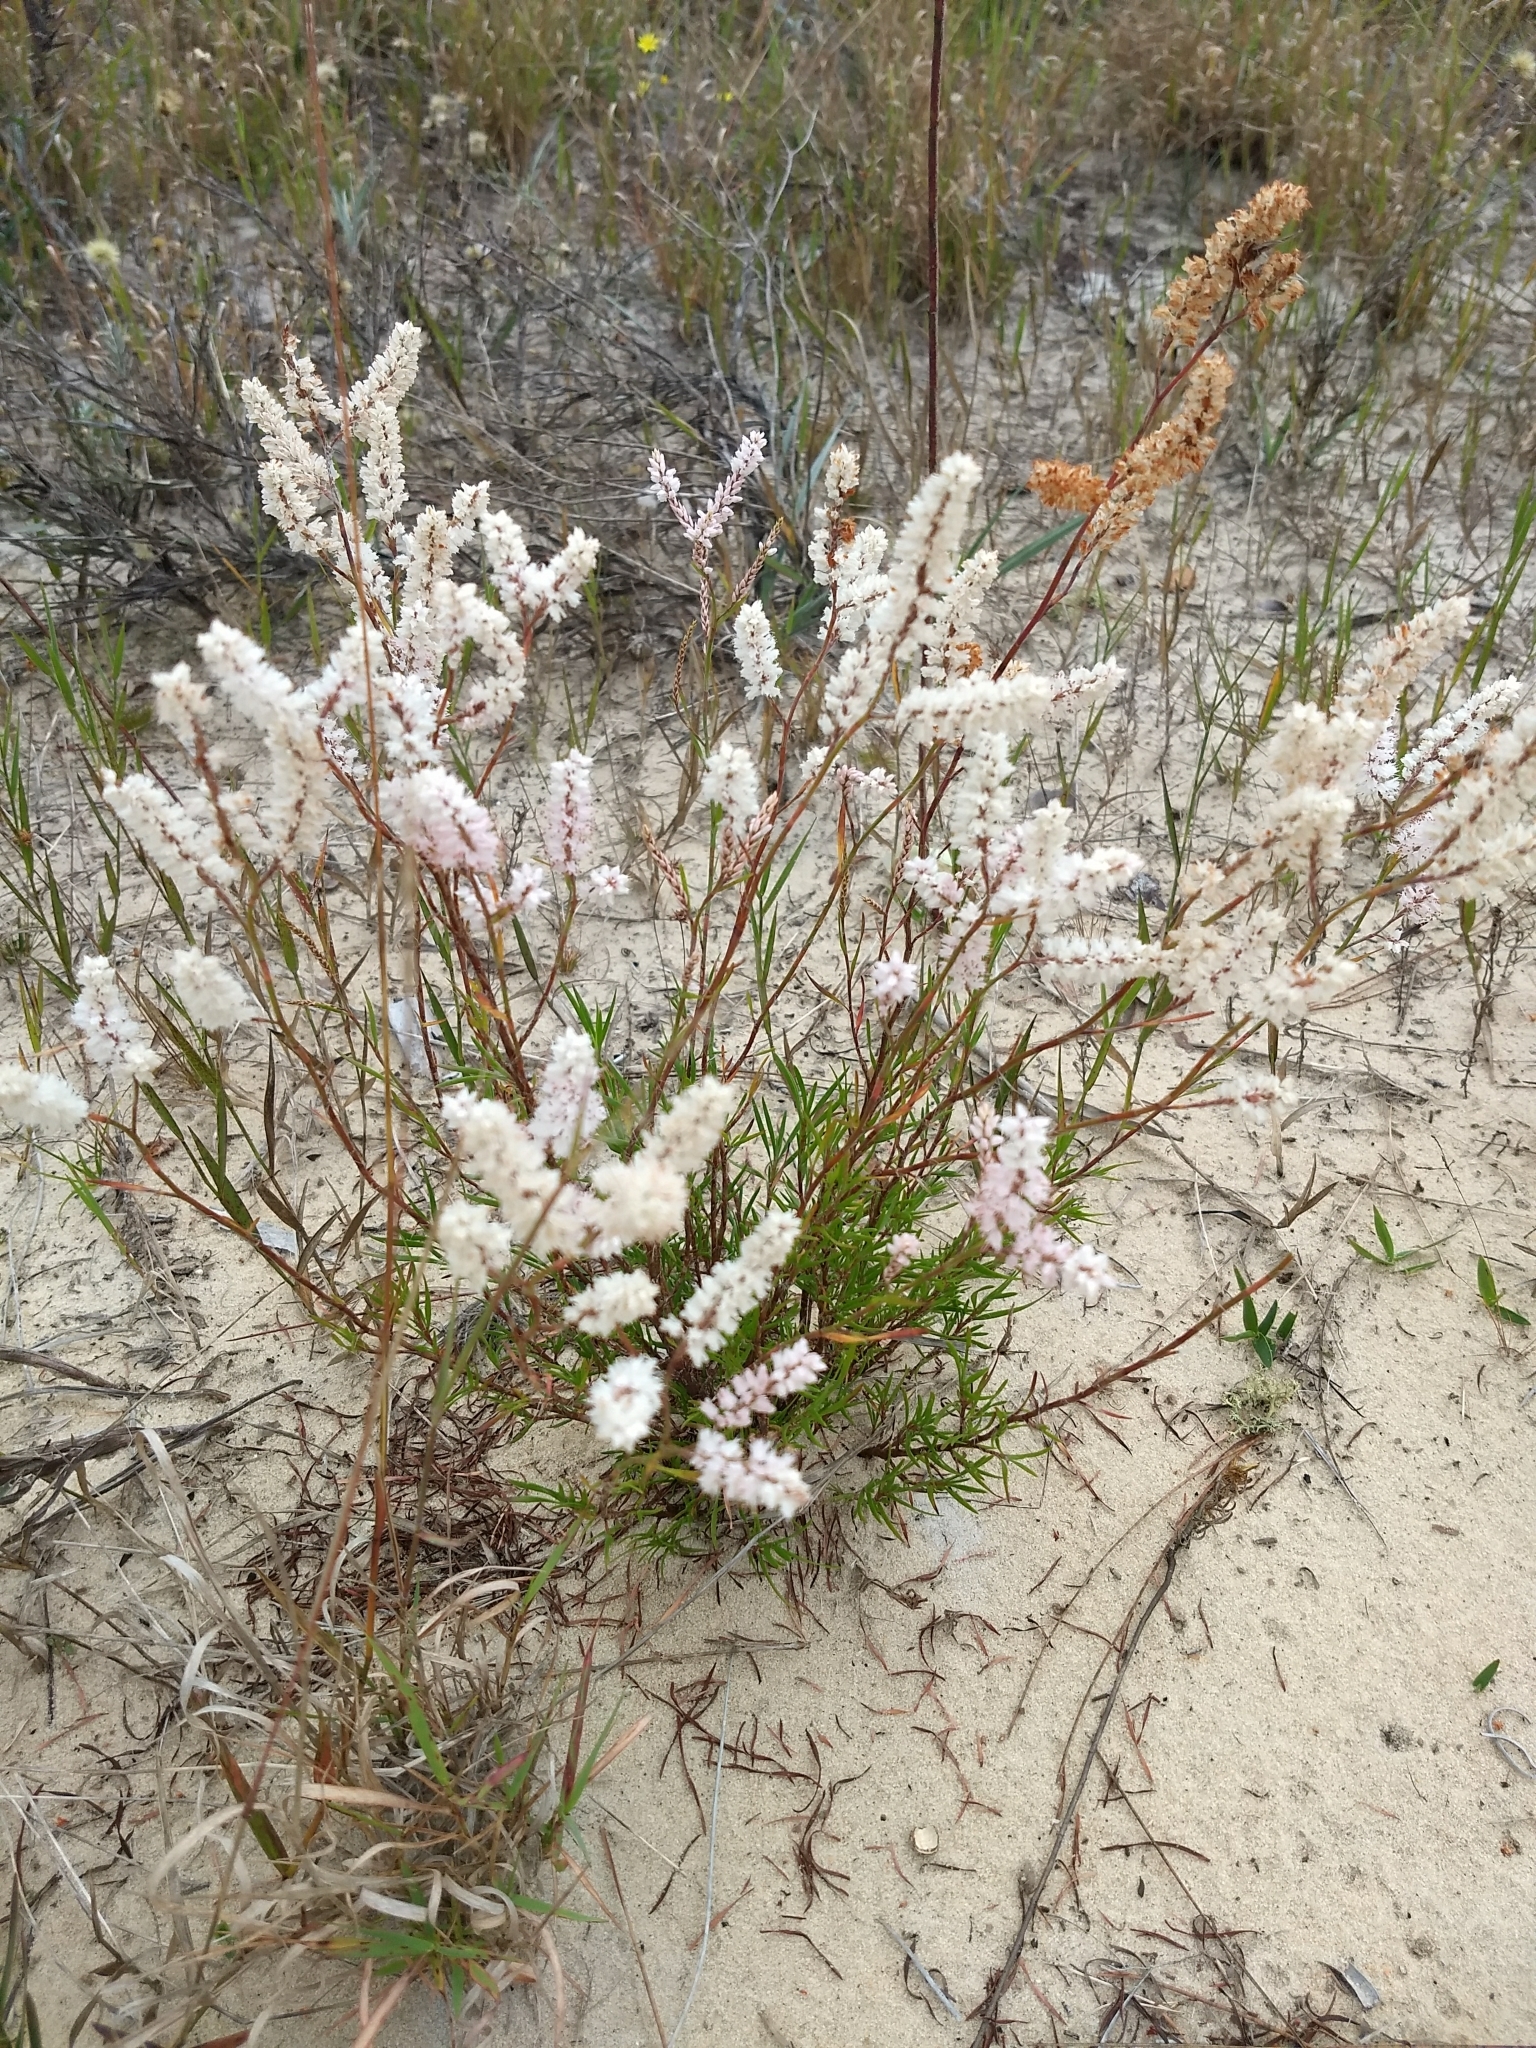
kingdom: Plantae
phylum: Tracheophyta
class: Magnoliopsida
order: Caryophyllales
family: Polygonaceae
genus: Polygonella
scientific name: Polygonella robusta
